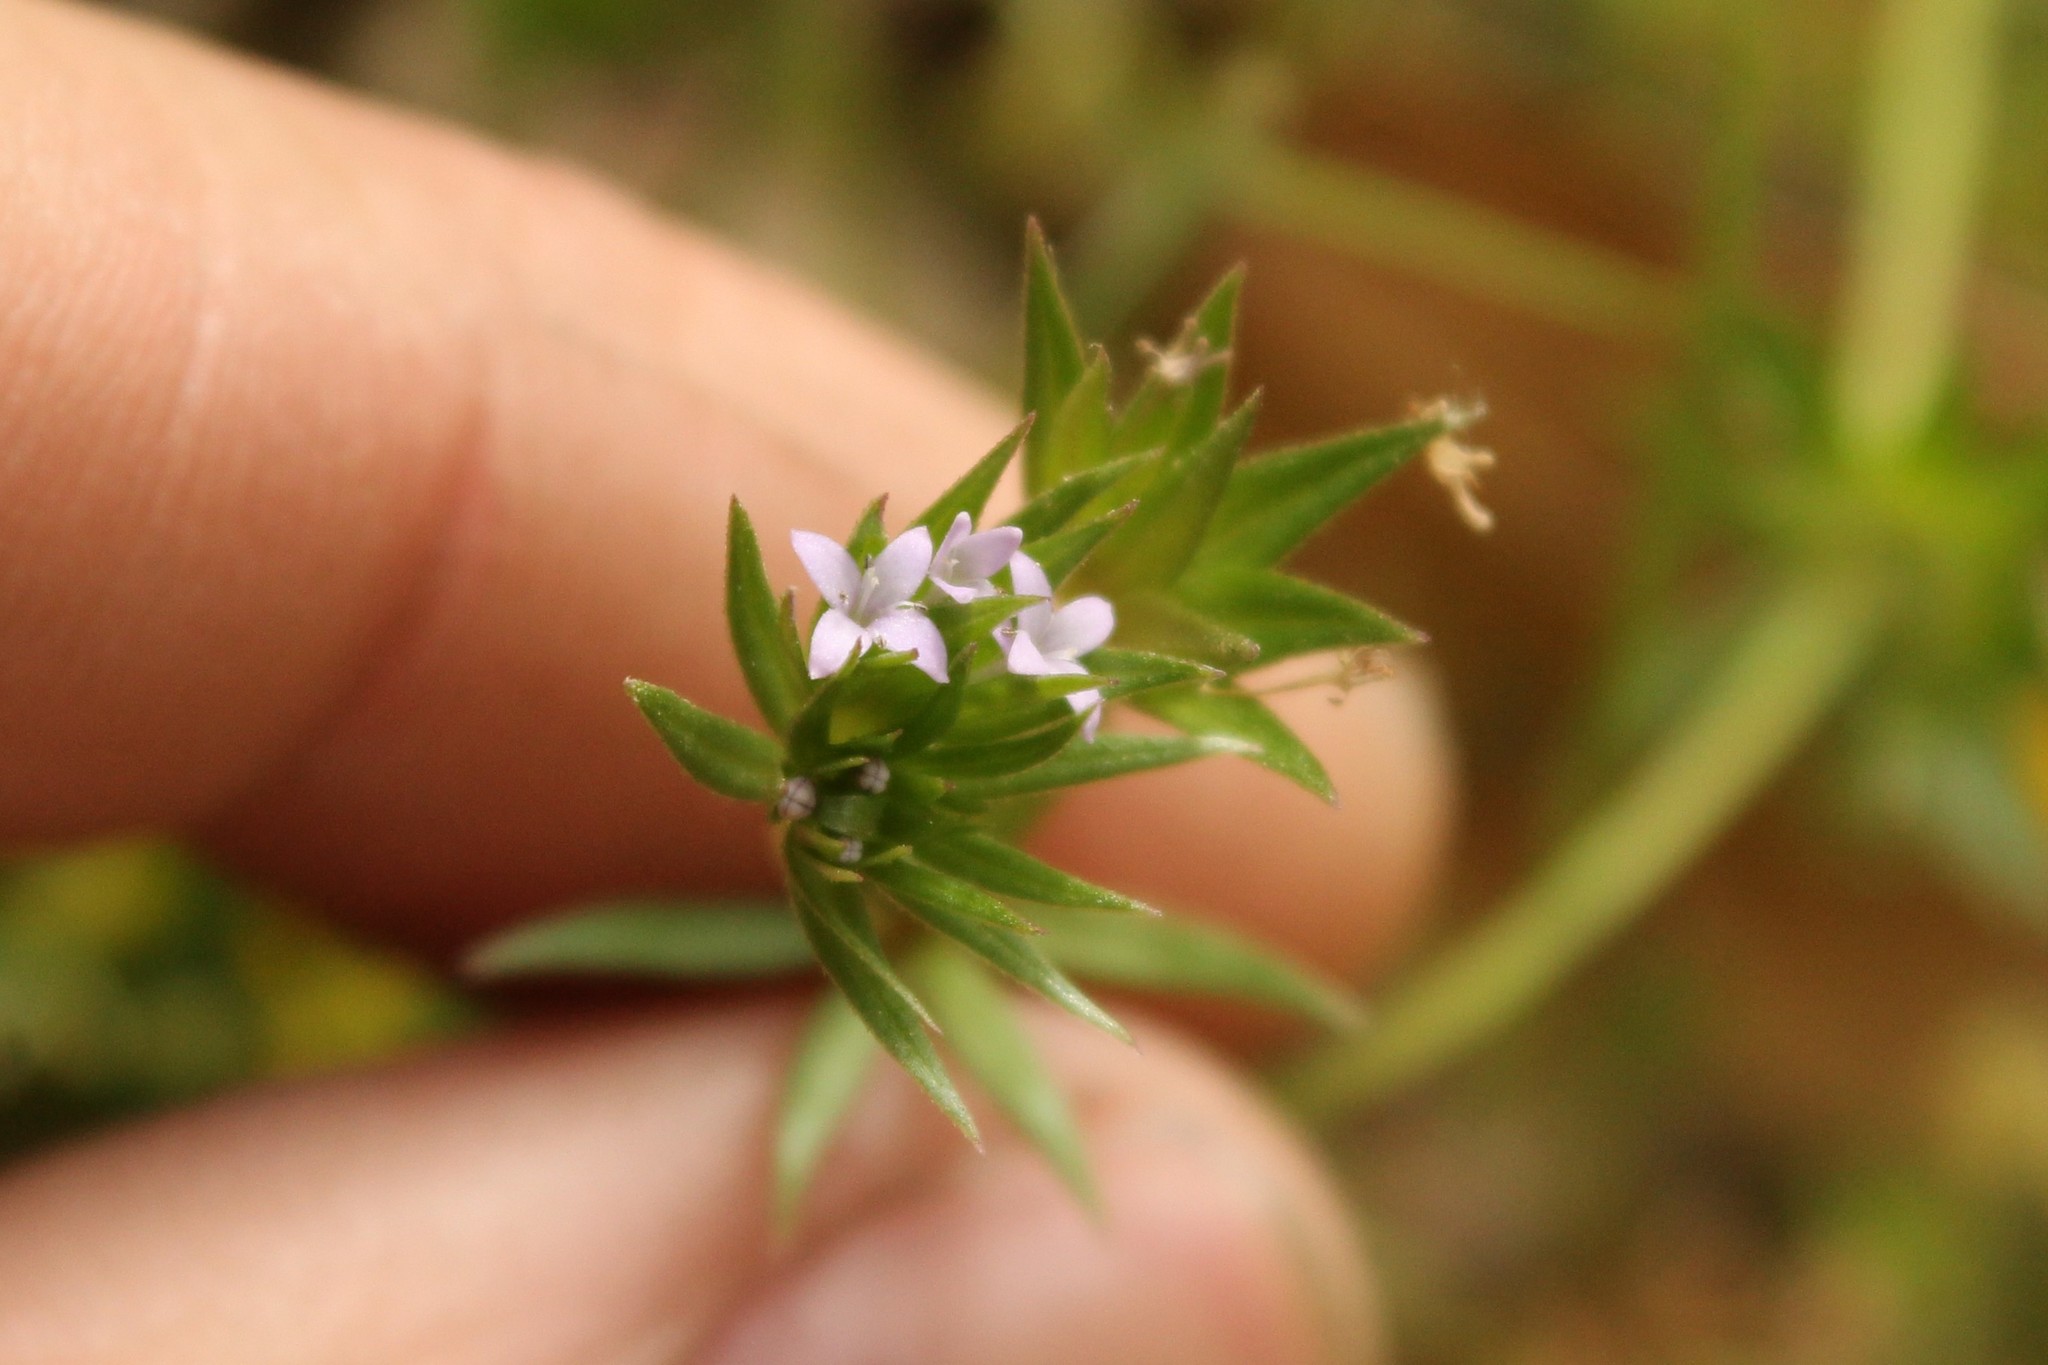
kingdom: Plantae
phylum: Tracheophyta
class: Magnoliopsida
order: Gentianales
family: Rubiaceae
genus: Sherardia
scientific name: Sherardia arvensis
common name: Field madder
